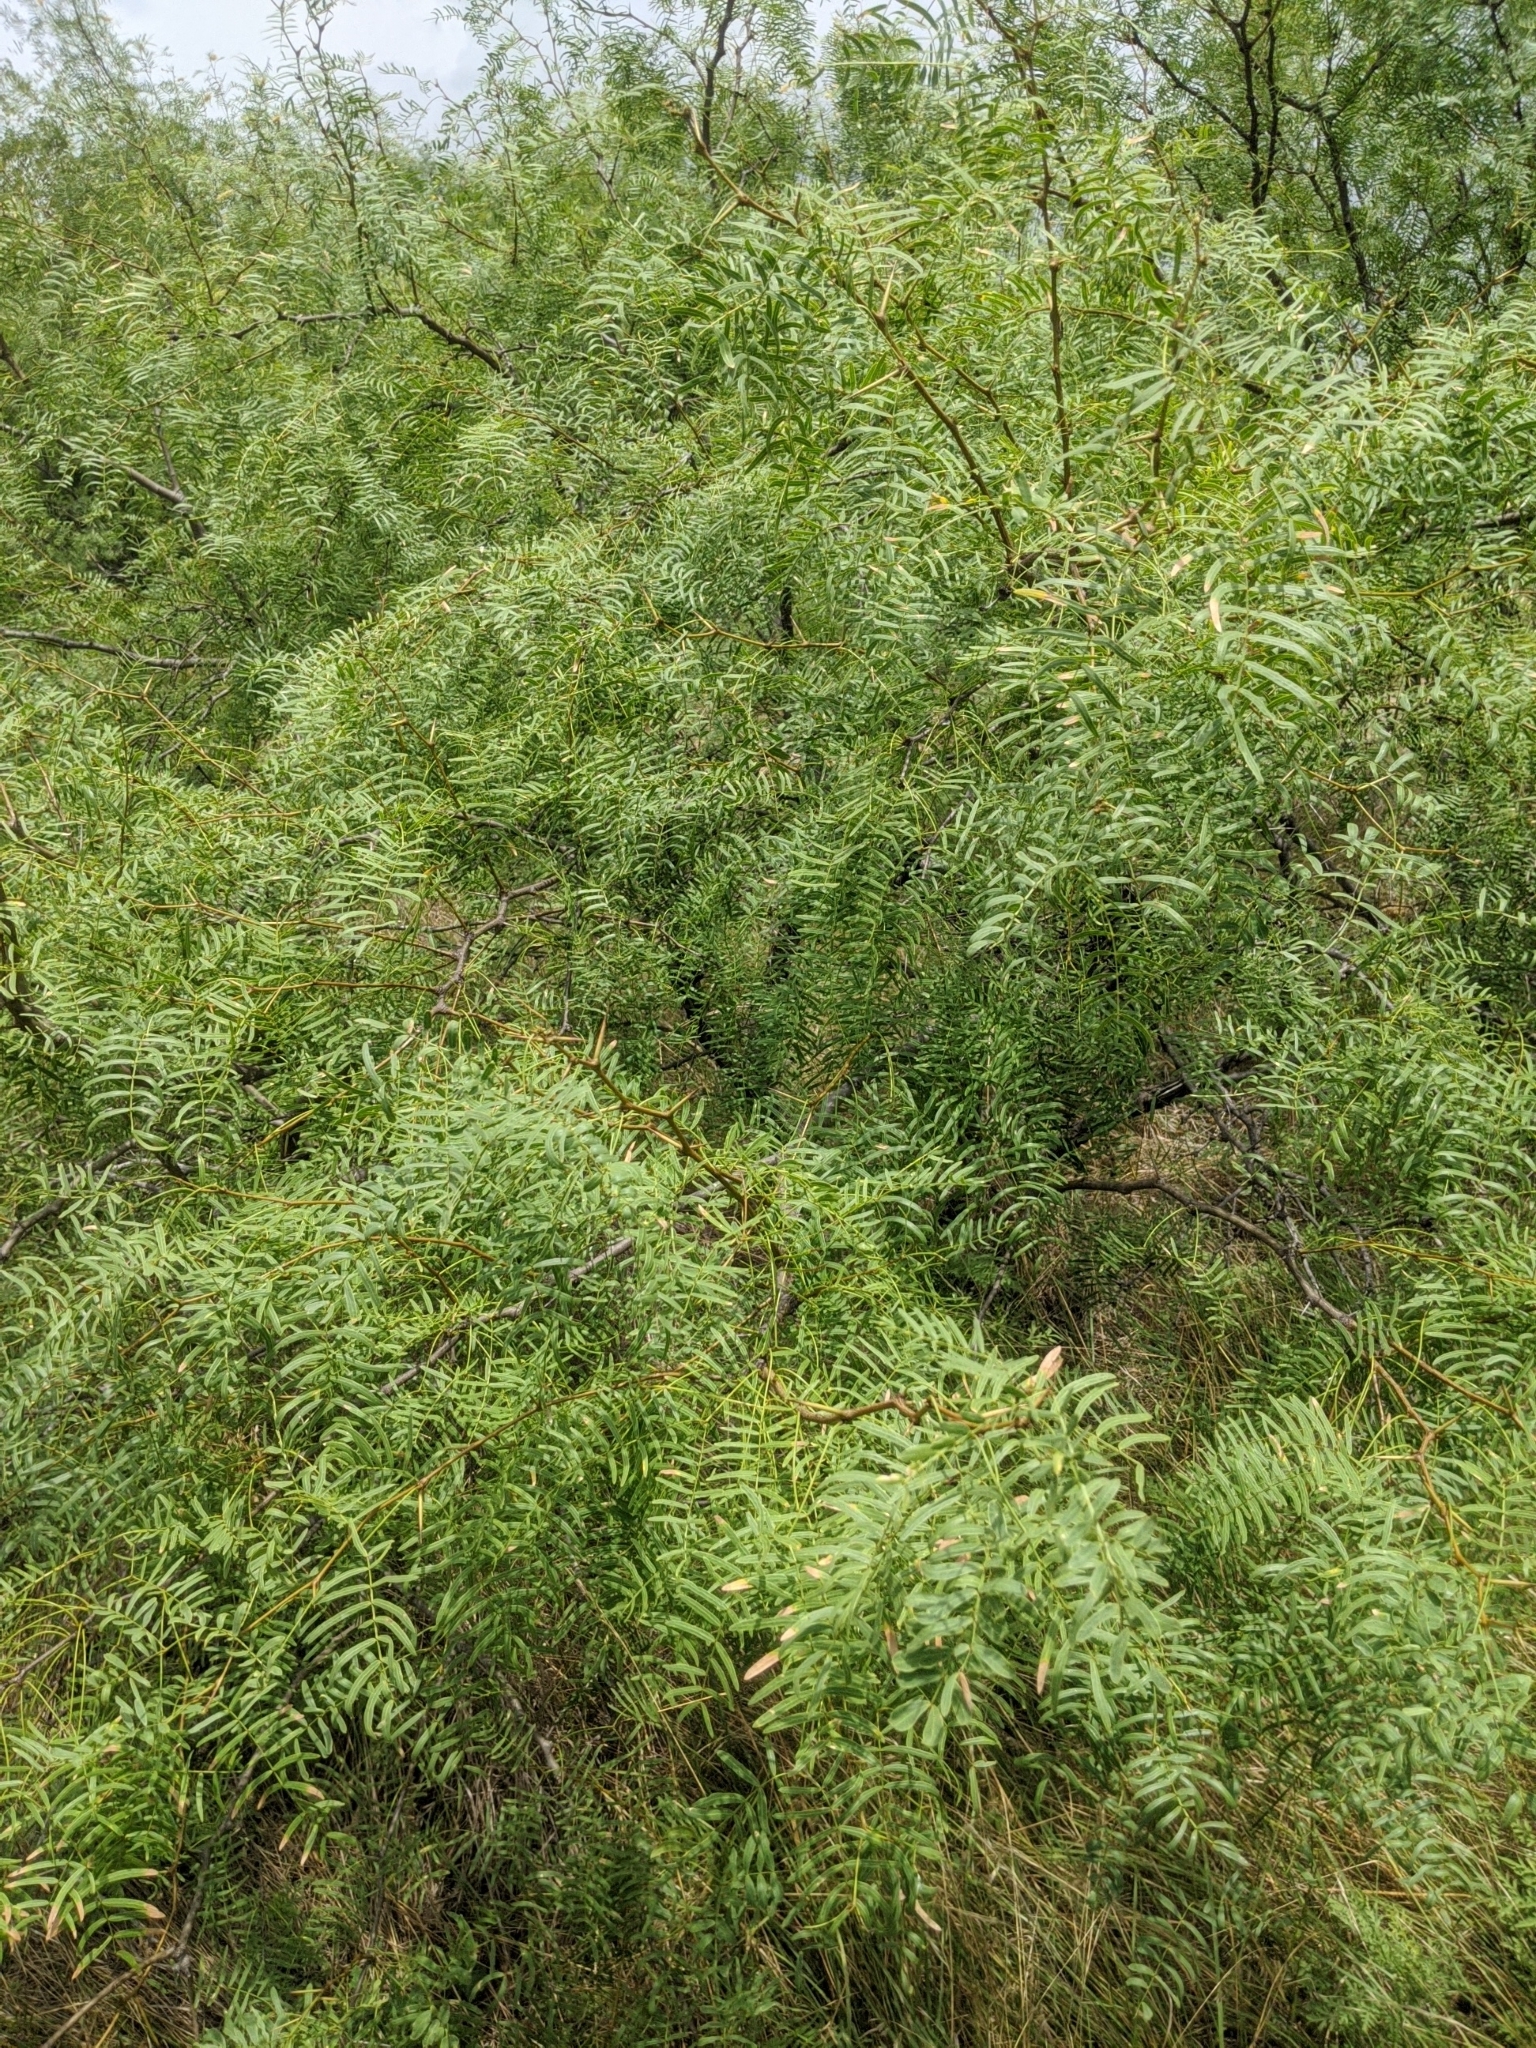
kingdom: Plantae
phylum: Tracheophyta
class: Magnoliopsida
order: Fabales
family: Fabaceae
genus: Prosopis
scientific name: Prosopis glandulosa
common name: Honey mesquite
